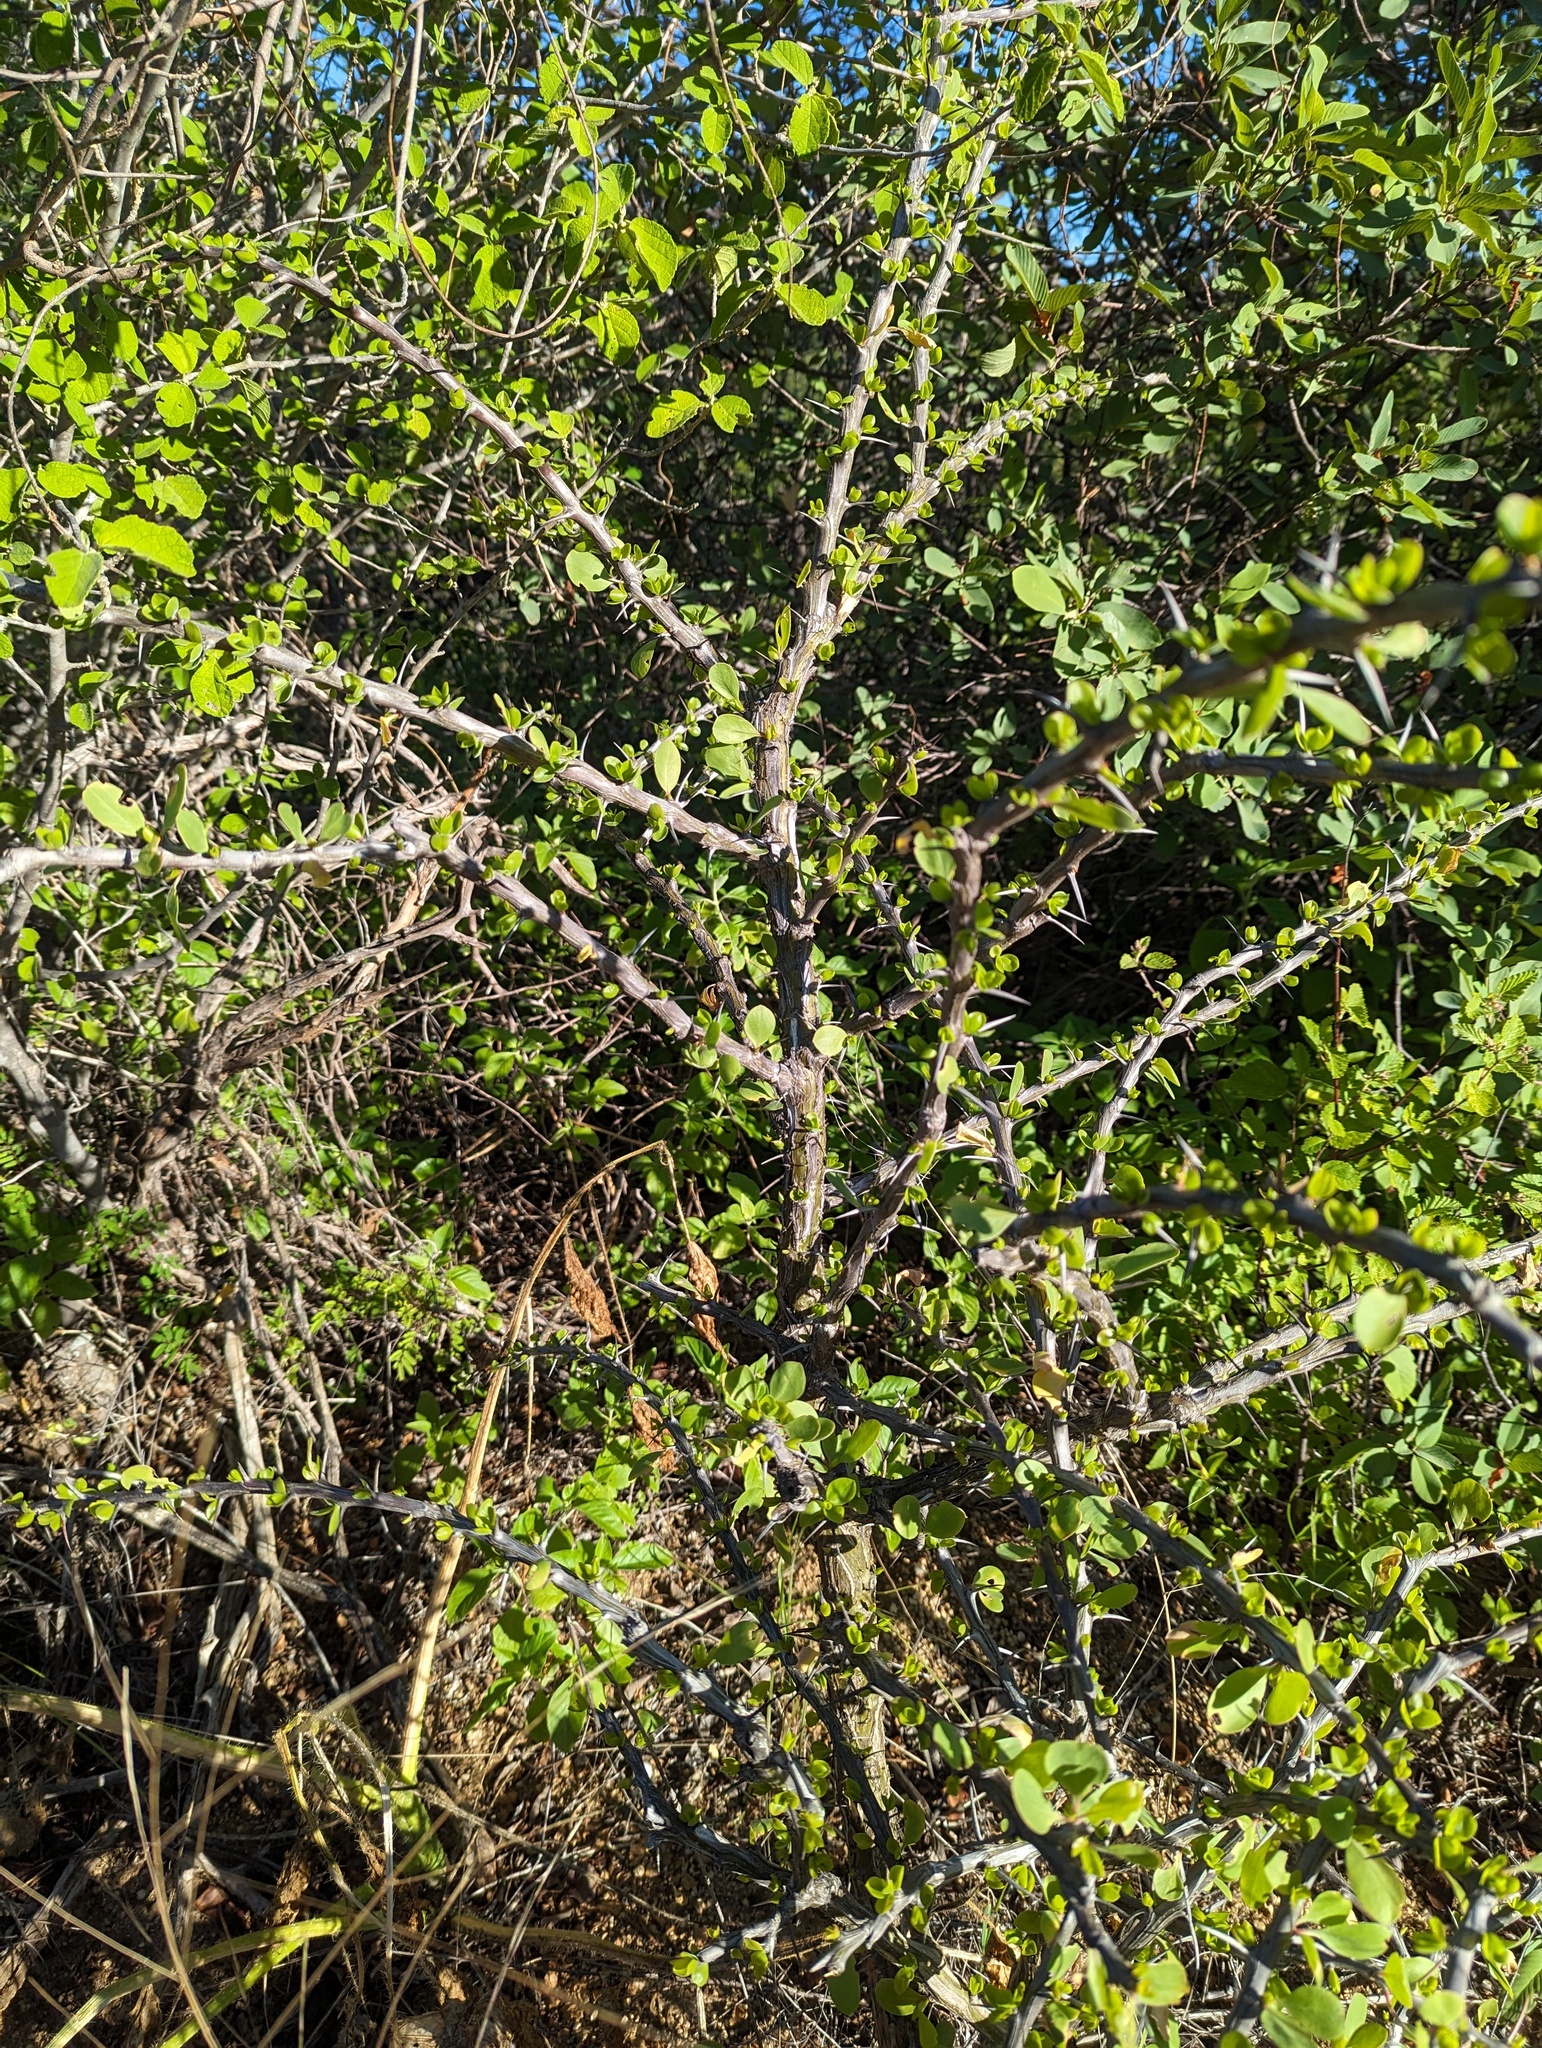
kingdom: Plantae
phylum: Tracheophyta
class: Magnoliopsida
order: Ericales
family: Fouquieriaceae
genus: Fouquieria
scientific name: Fouquieria diguetii
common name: Adam's tree
